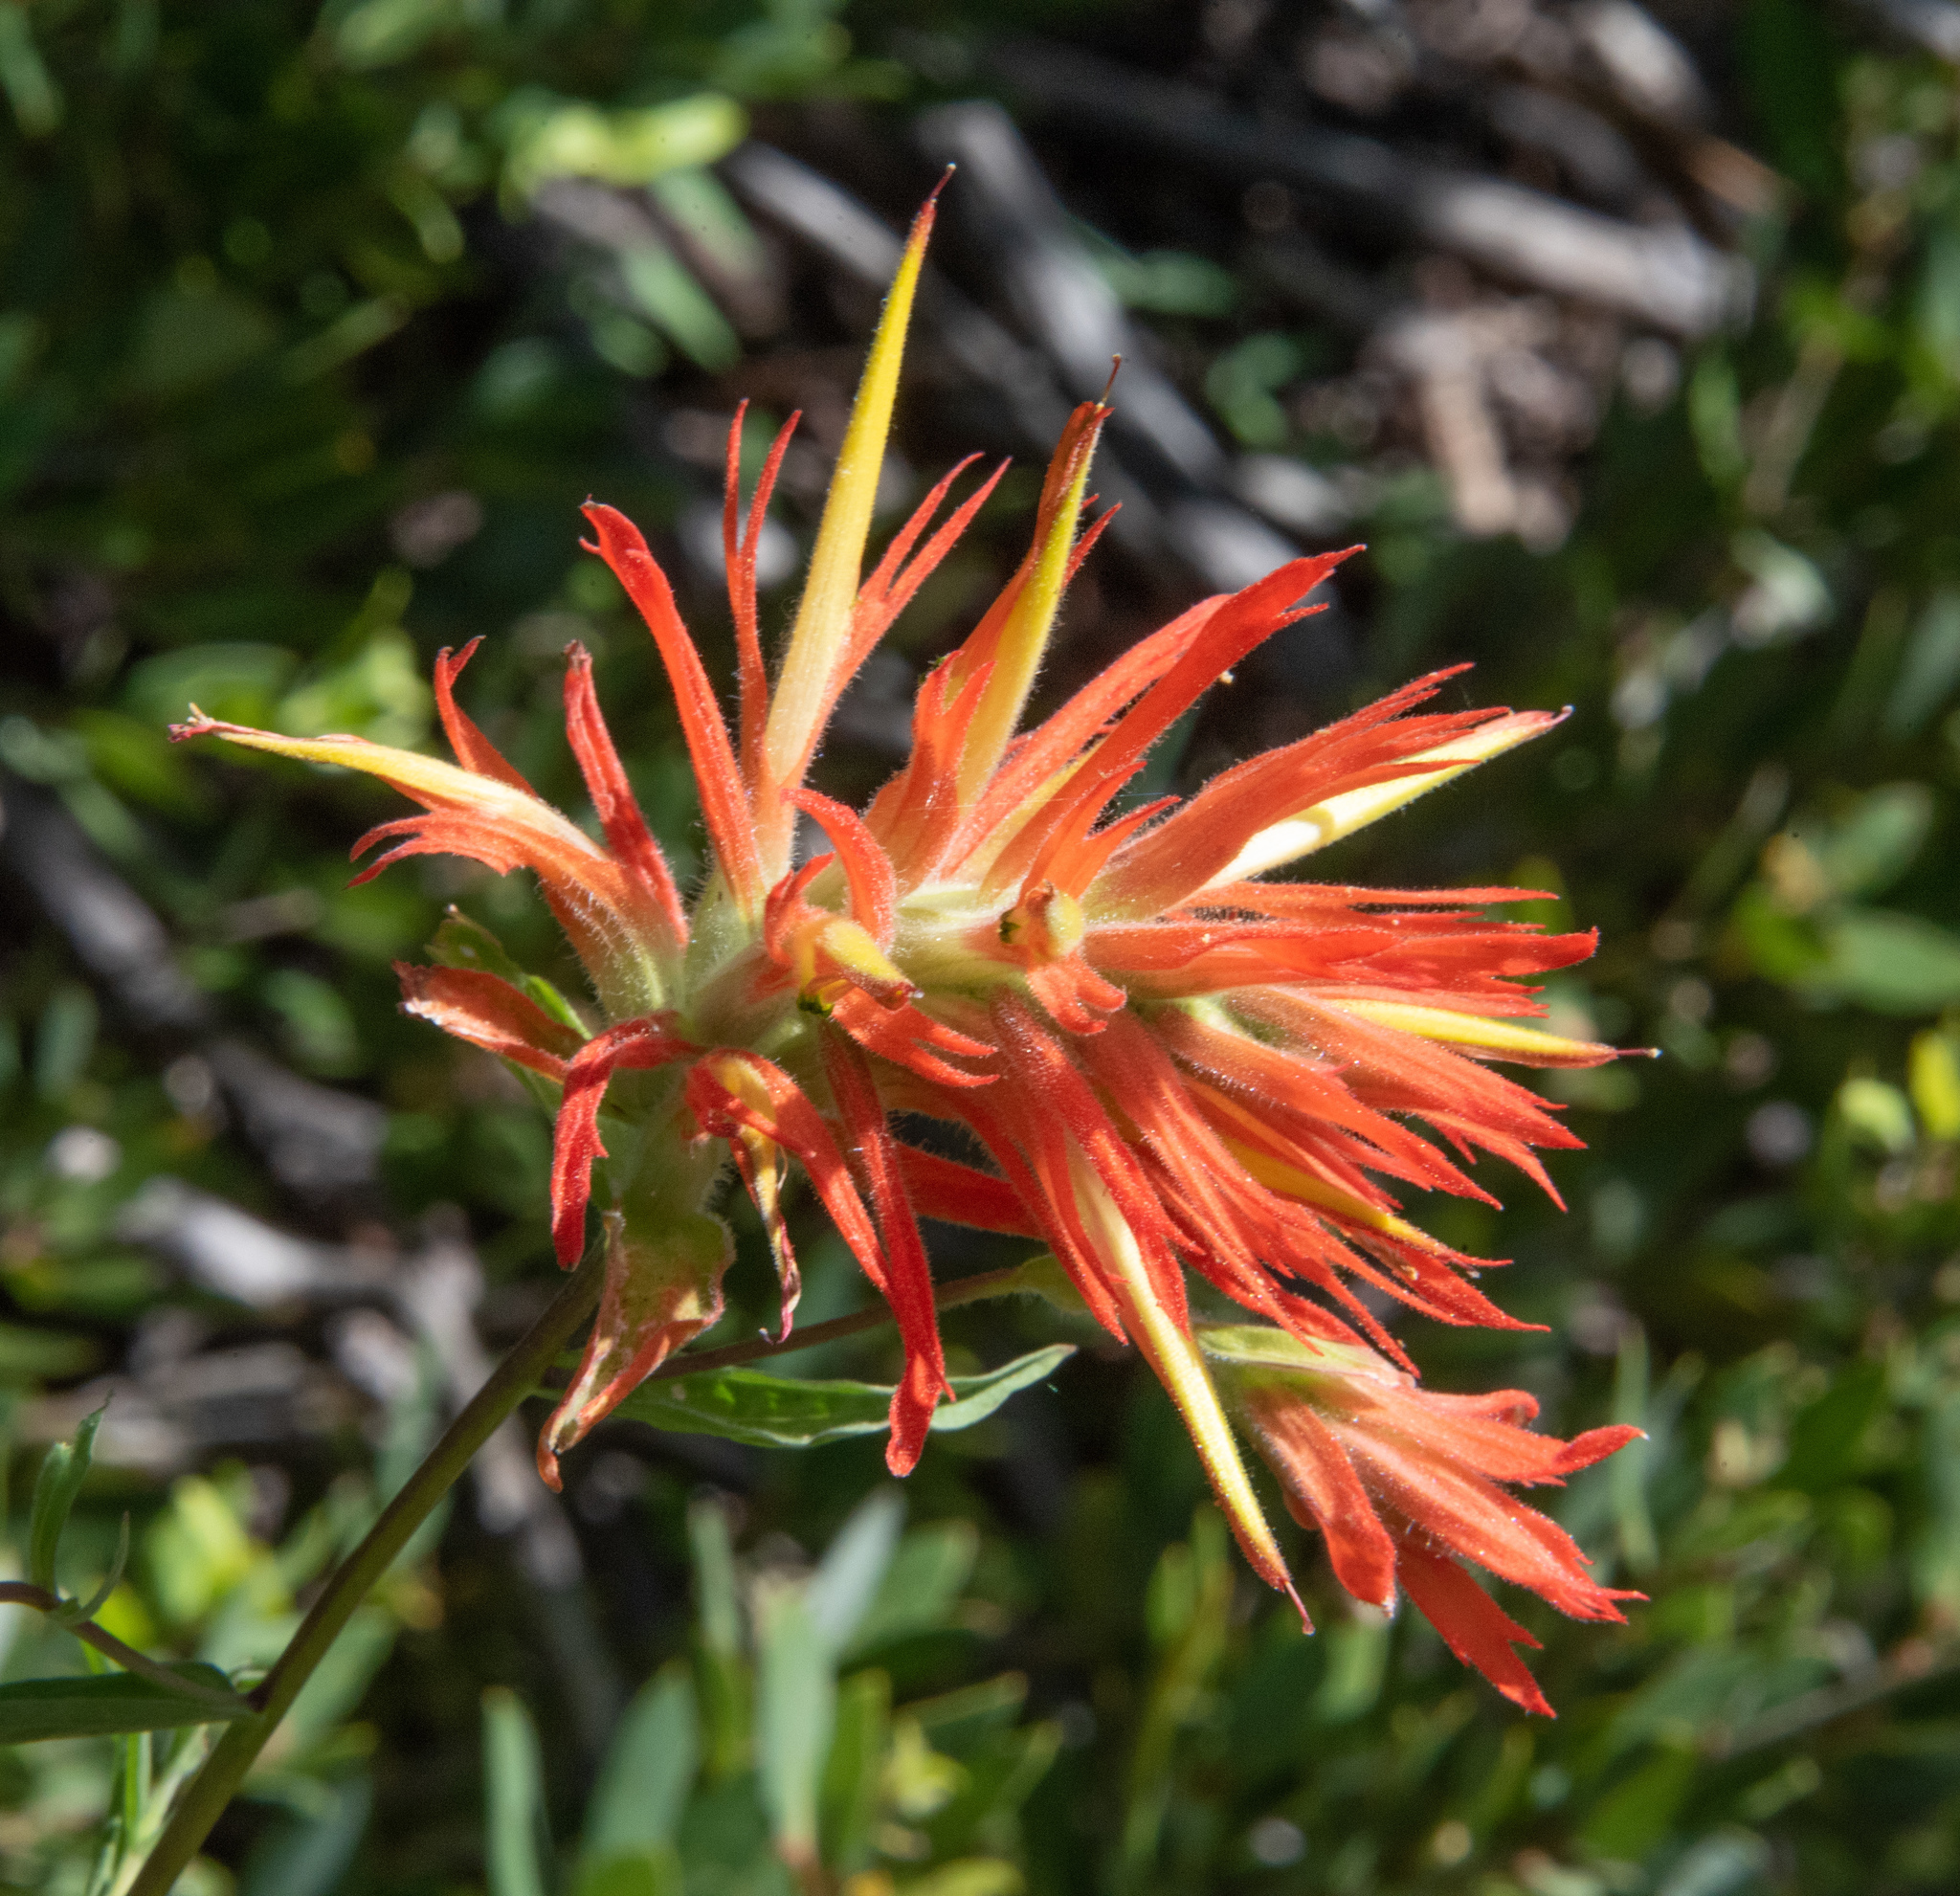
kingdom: Plantae
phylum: Tracheophyta
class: Magnoliopsida
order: Lamiales
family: Orobanchaceae
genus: Castilleja
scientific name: Castilleja miniata
